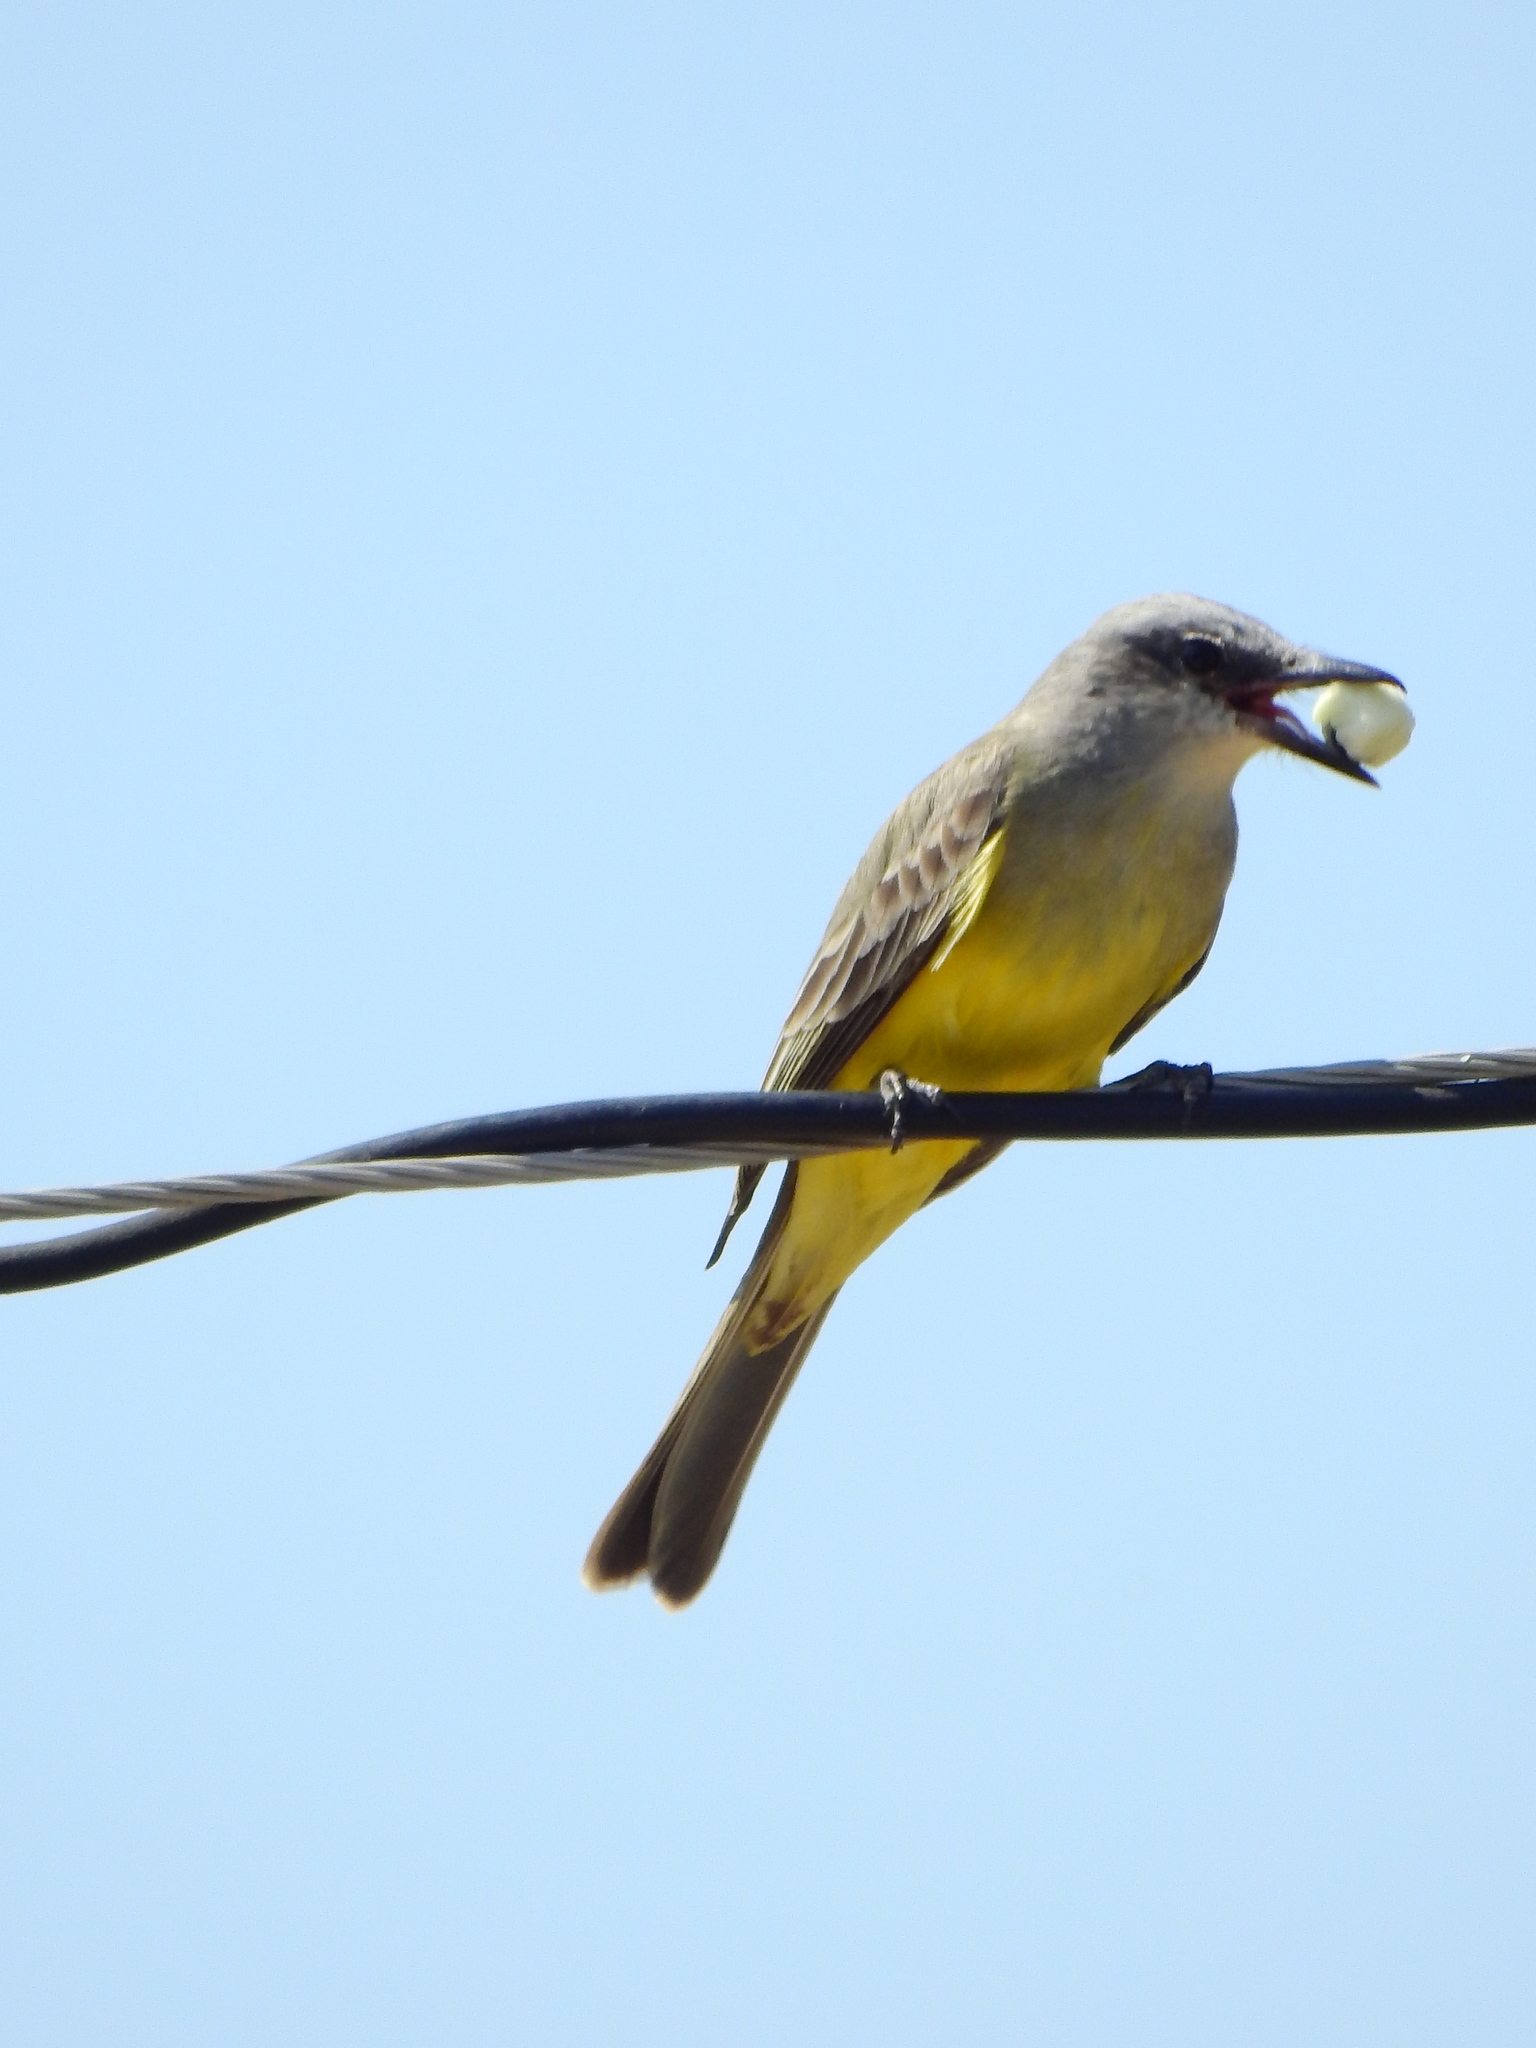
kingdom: Animalia
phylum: Chordata
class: Aves
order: Passeriformes
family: Tyrannidae
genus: Tyrannus
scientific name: Tyrannus melancholicus
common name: Tropical kingbird
